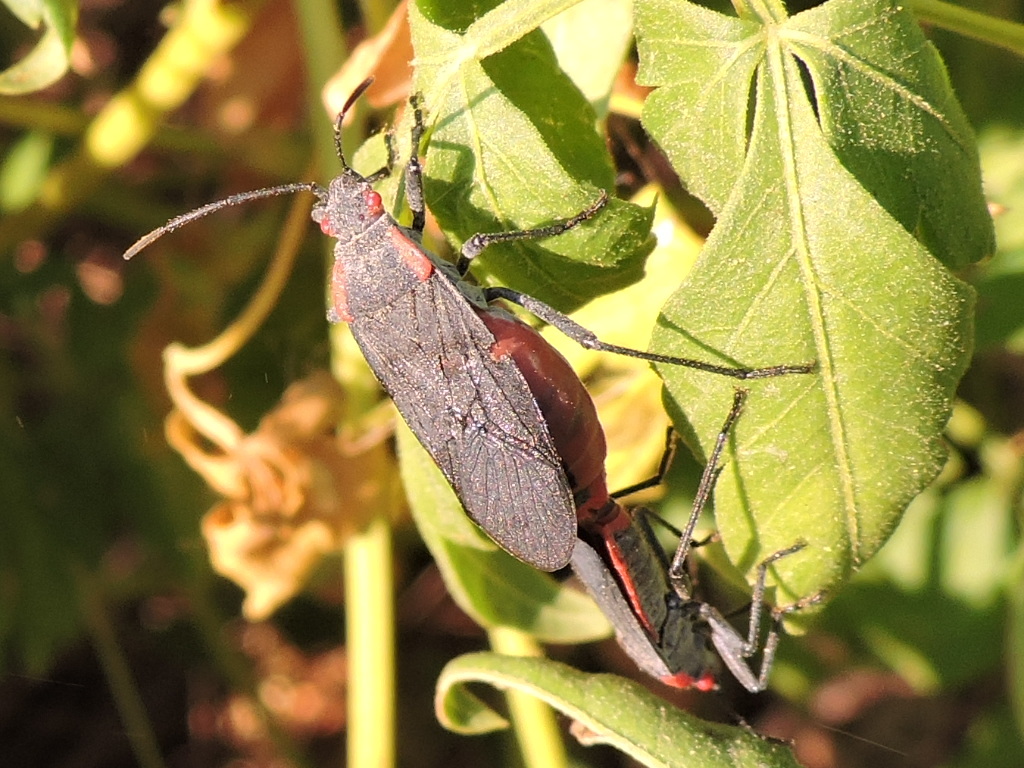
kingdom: Animalia
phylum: Arthropoda
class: Insecta
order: Hemiptera
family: Rhopalidae
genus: Jadera
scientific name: Jadera haematoloma
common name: Red-shouldered bug
